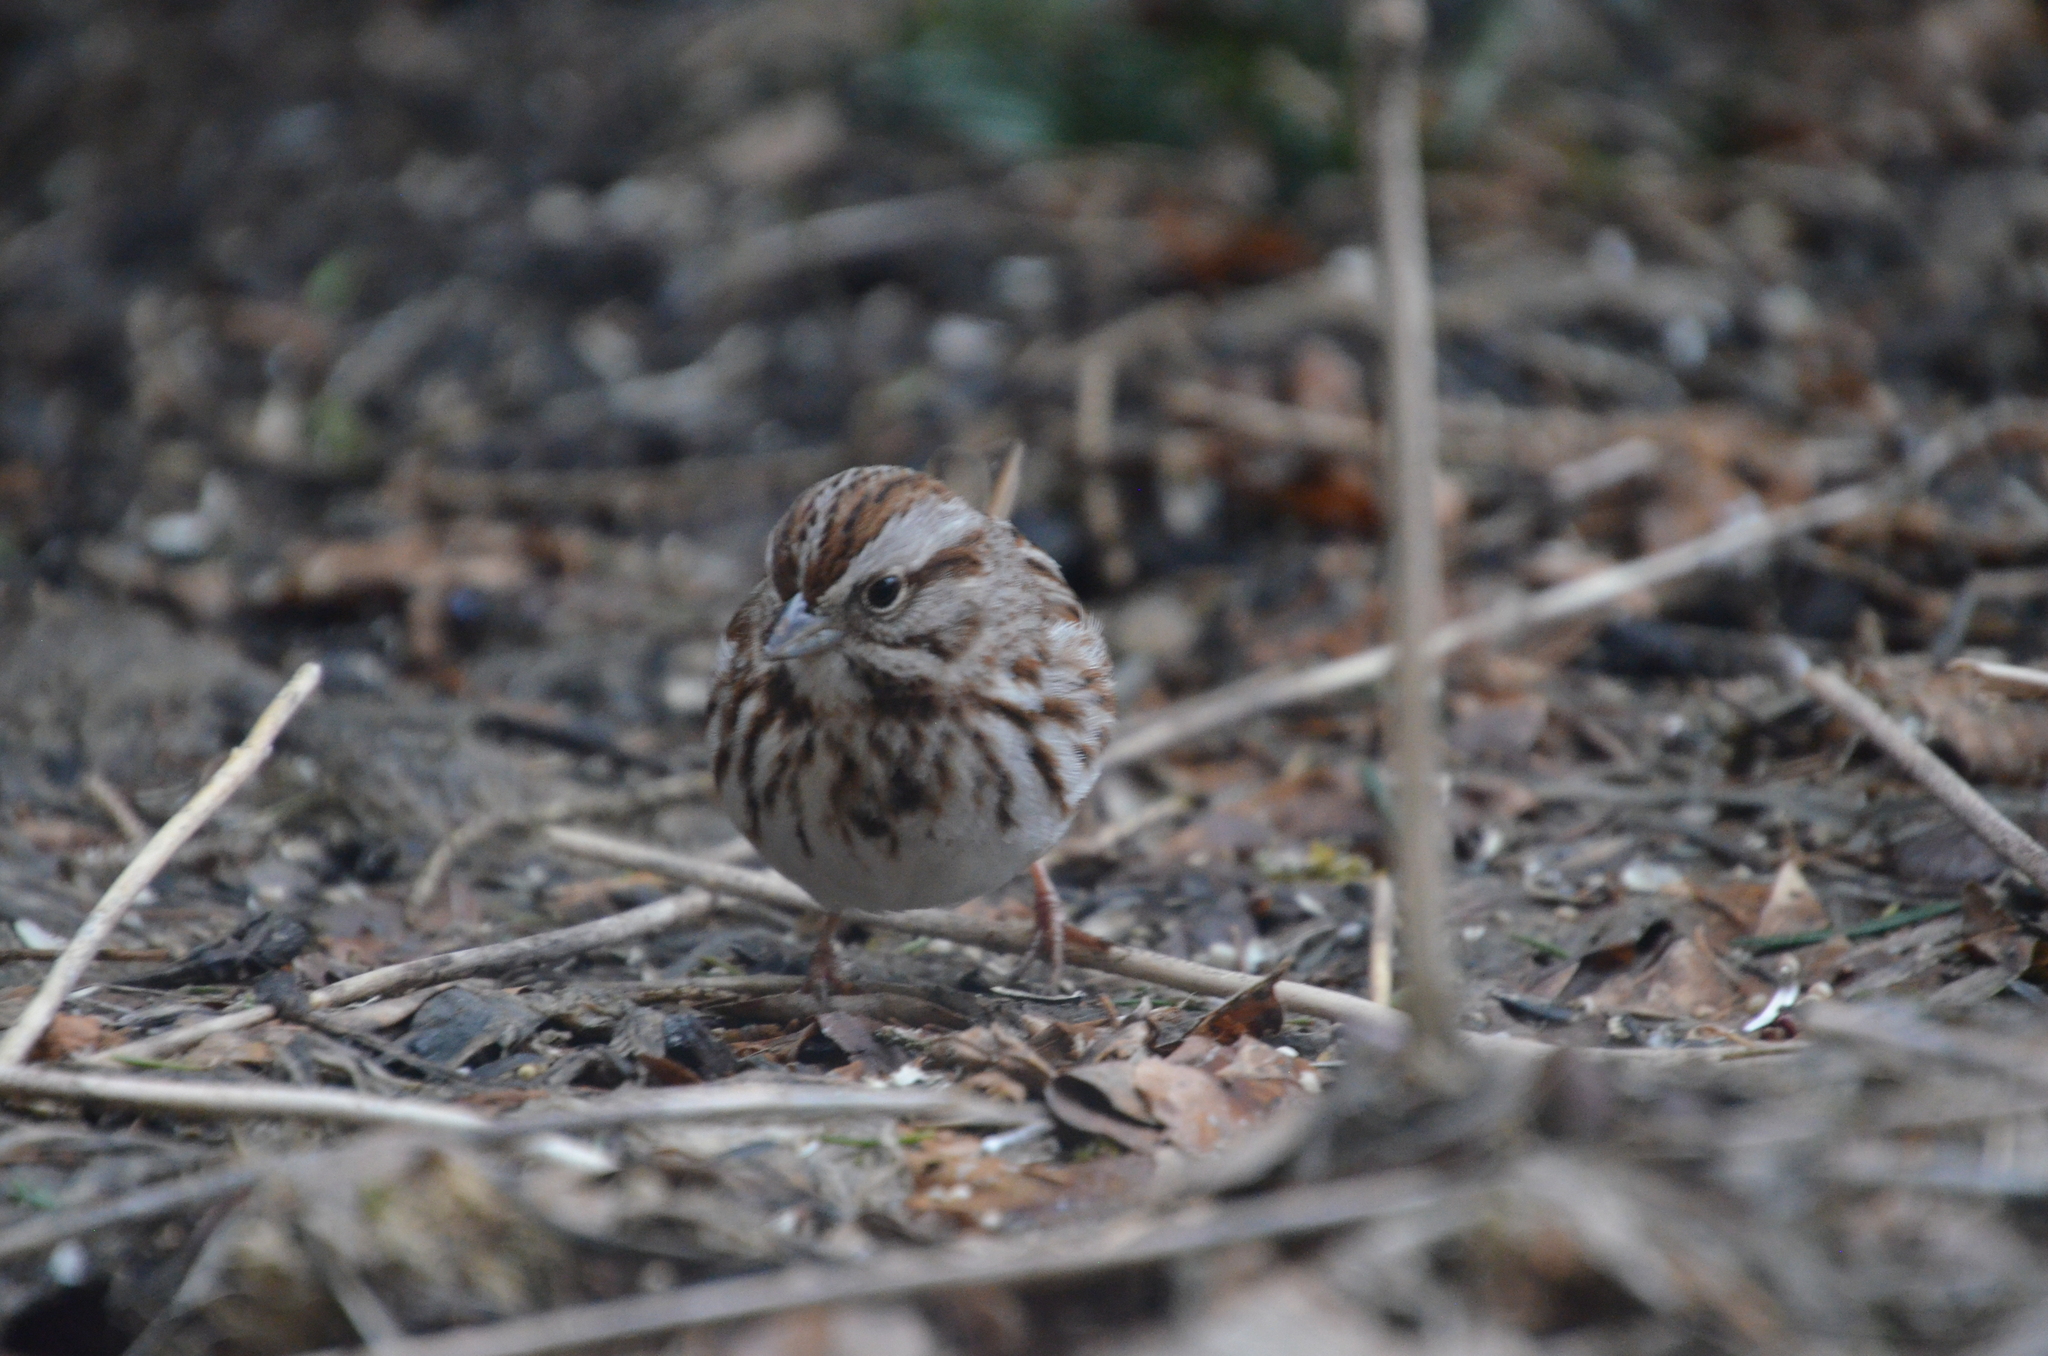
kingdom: Animalia
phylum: Chordata
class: Aves
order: Passeriformes
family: Passerellidae
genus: Melospiza
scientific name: Melospiza melodia
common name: Song sparrow
